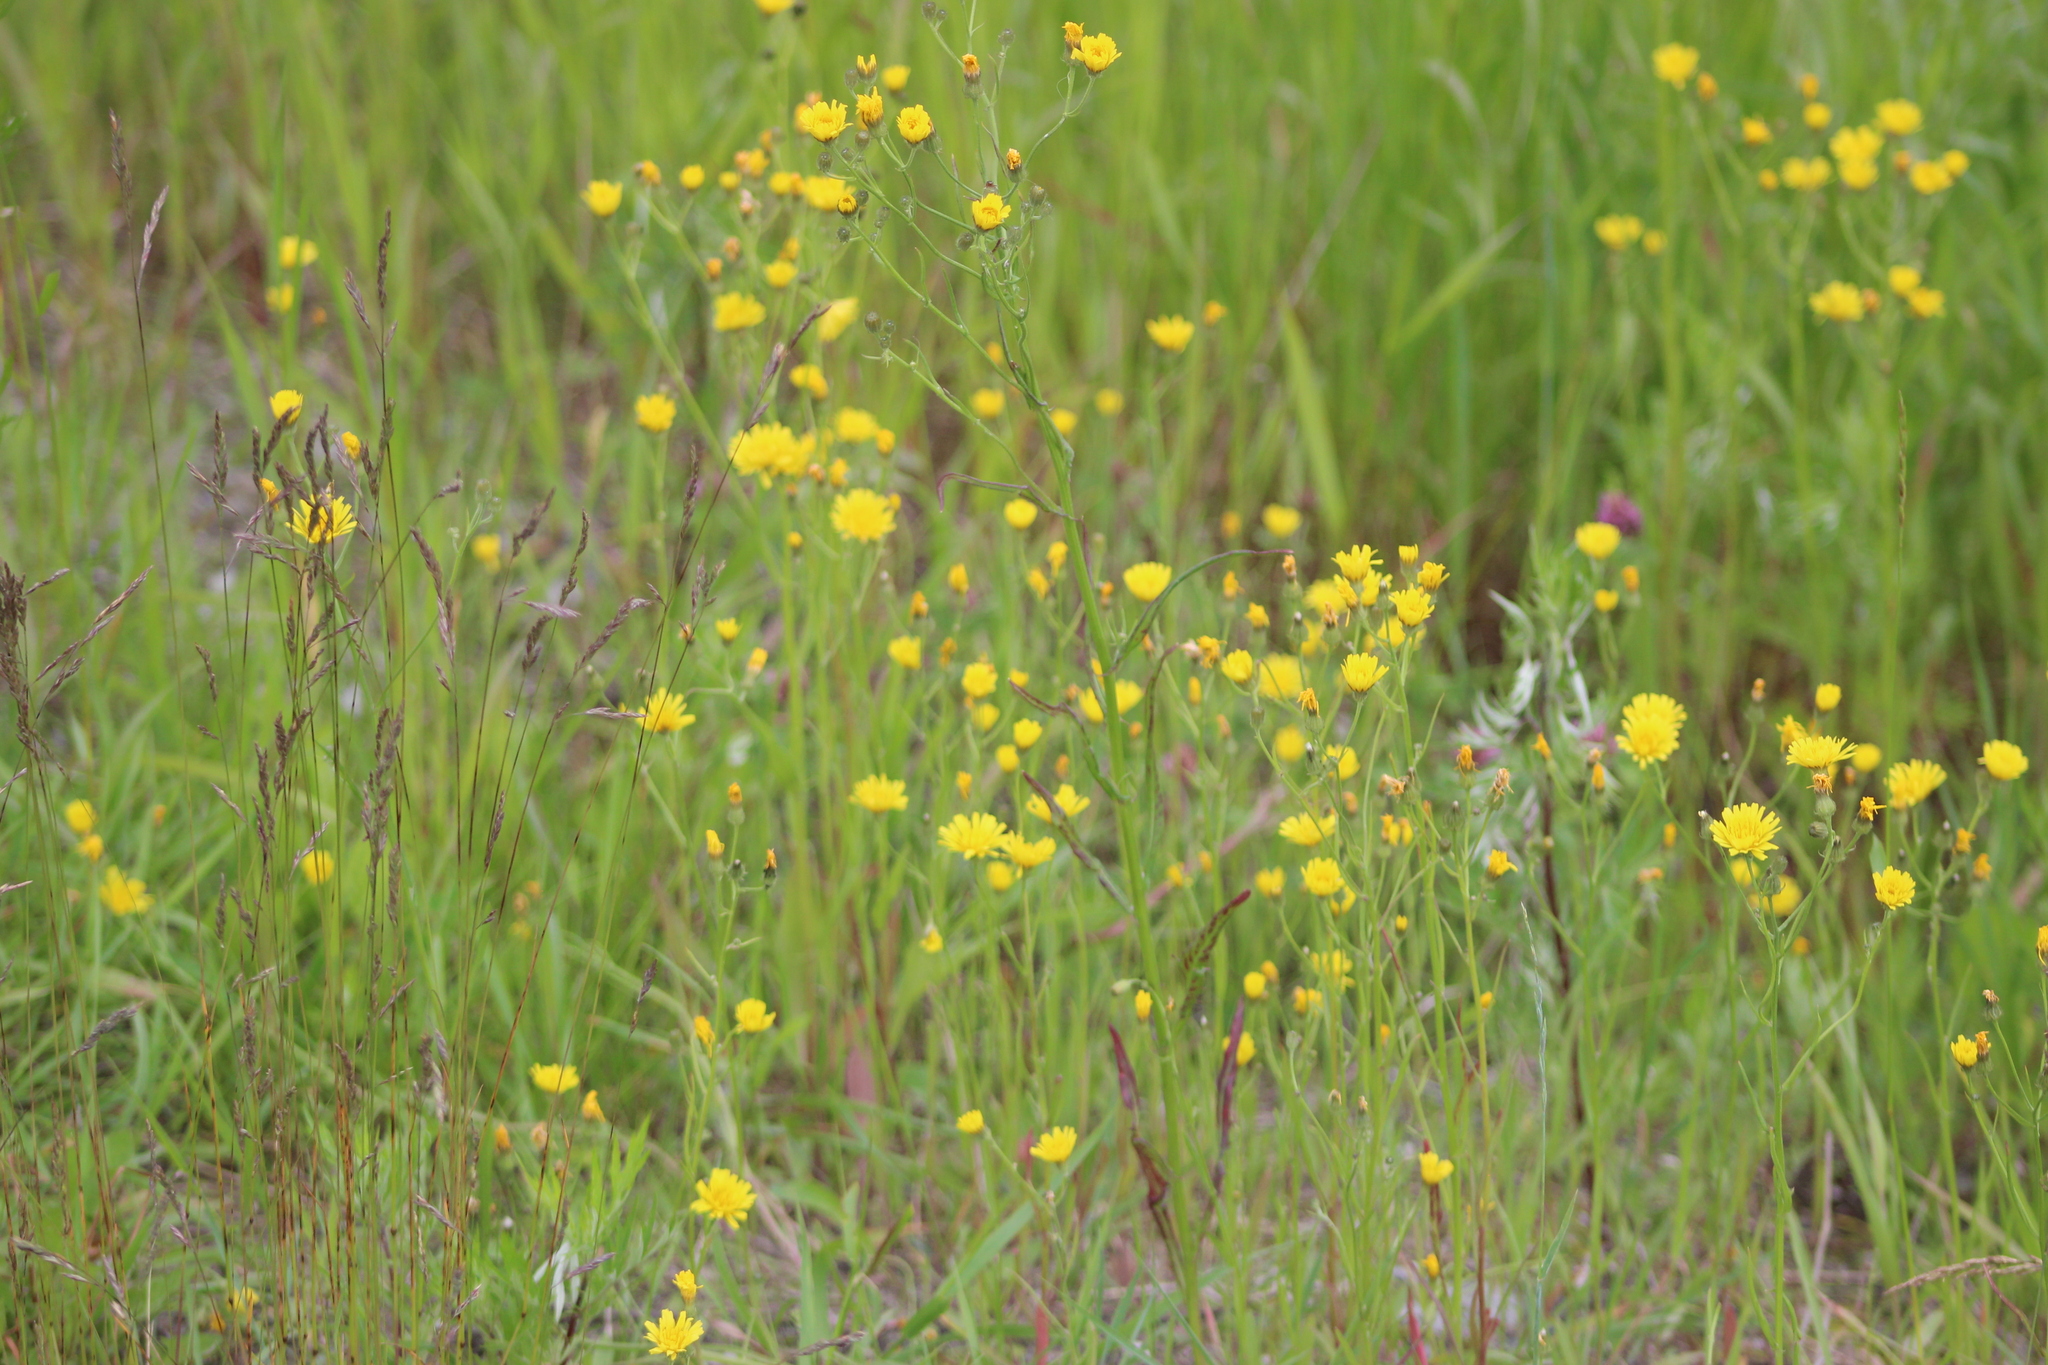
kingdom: Plantae
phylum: Tracheophyta
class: Magnoliopsida
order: Asterales
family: Asteraceae
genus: Crepis
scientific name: Crepis tectorum
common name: Narrow-leaved hawk's-beard
